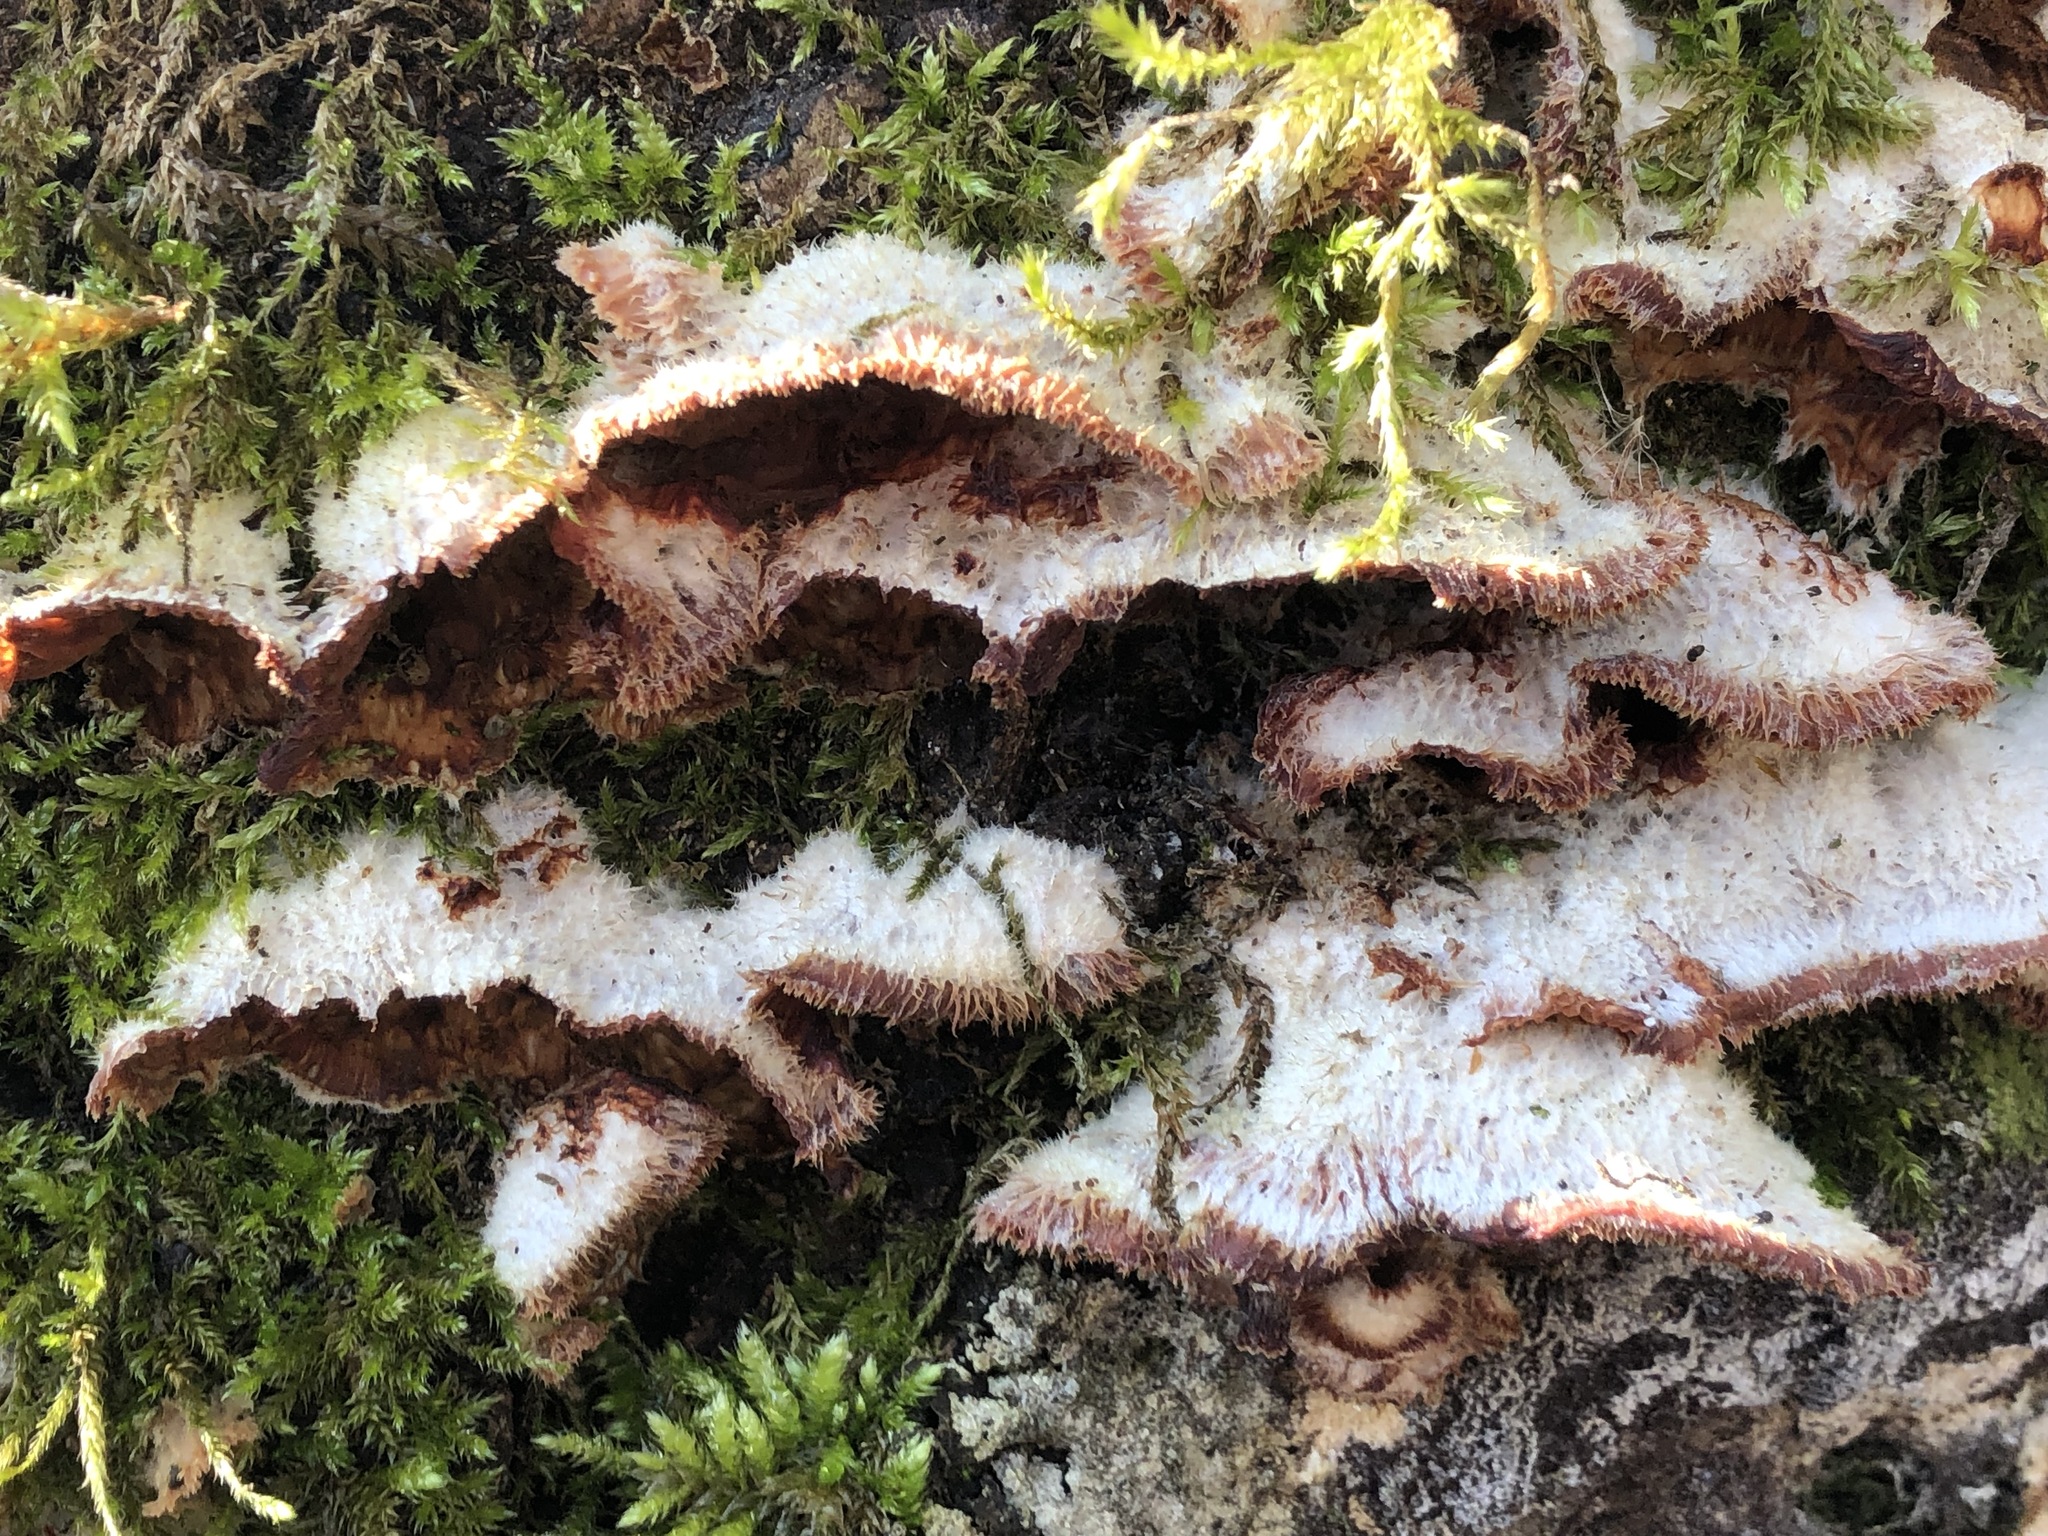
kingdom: Fungi
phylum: Basidiomycota
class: Agaricomycetes
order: Polyporales
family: Meruliaceae
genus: Phlebia
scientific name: Phlebia tremellosa
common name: Jelly rot
